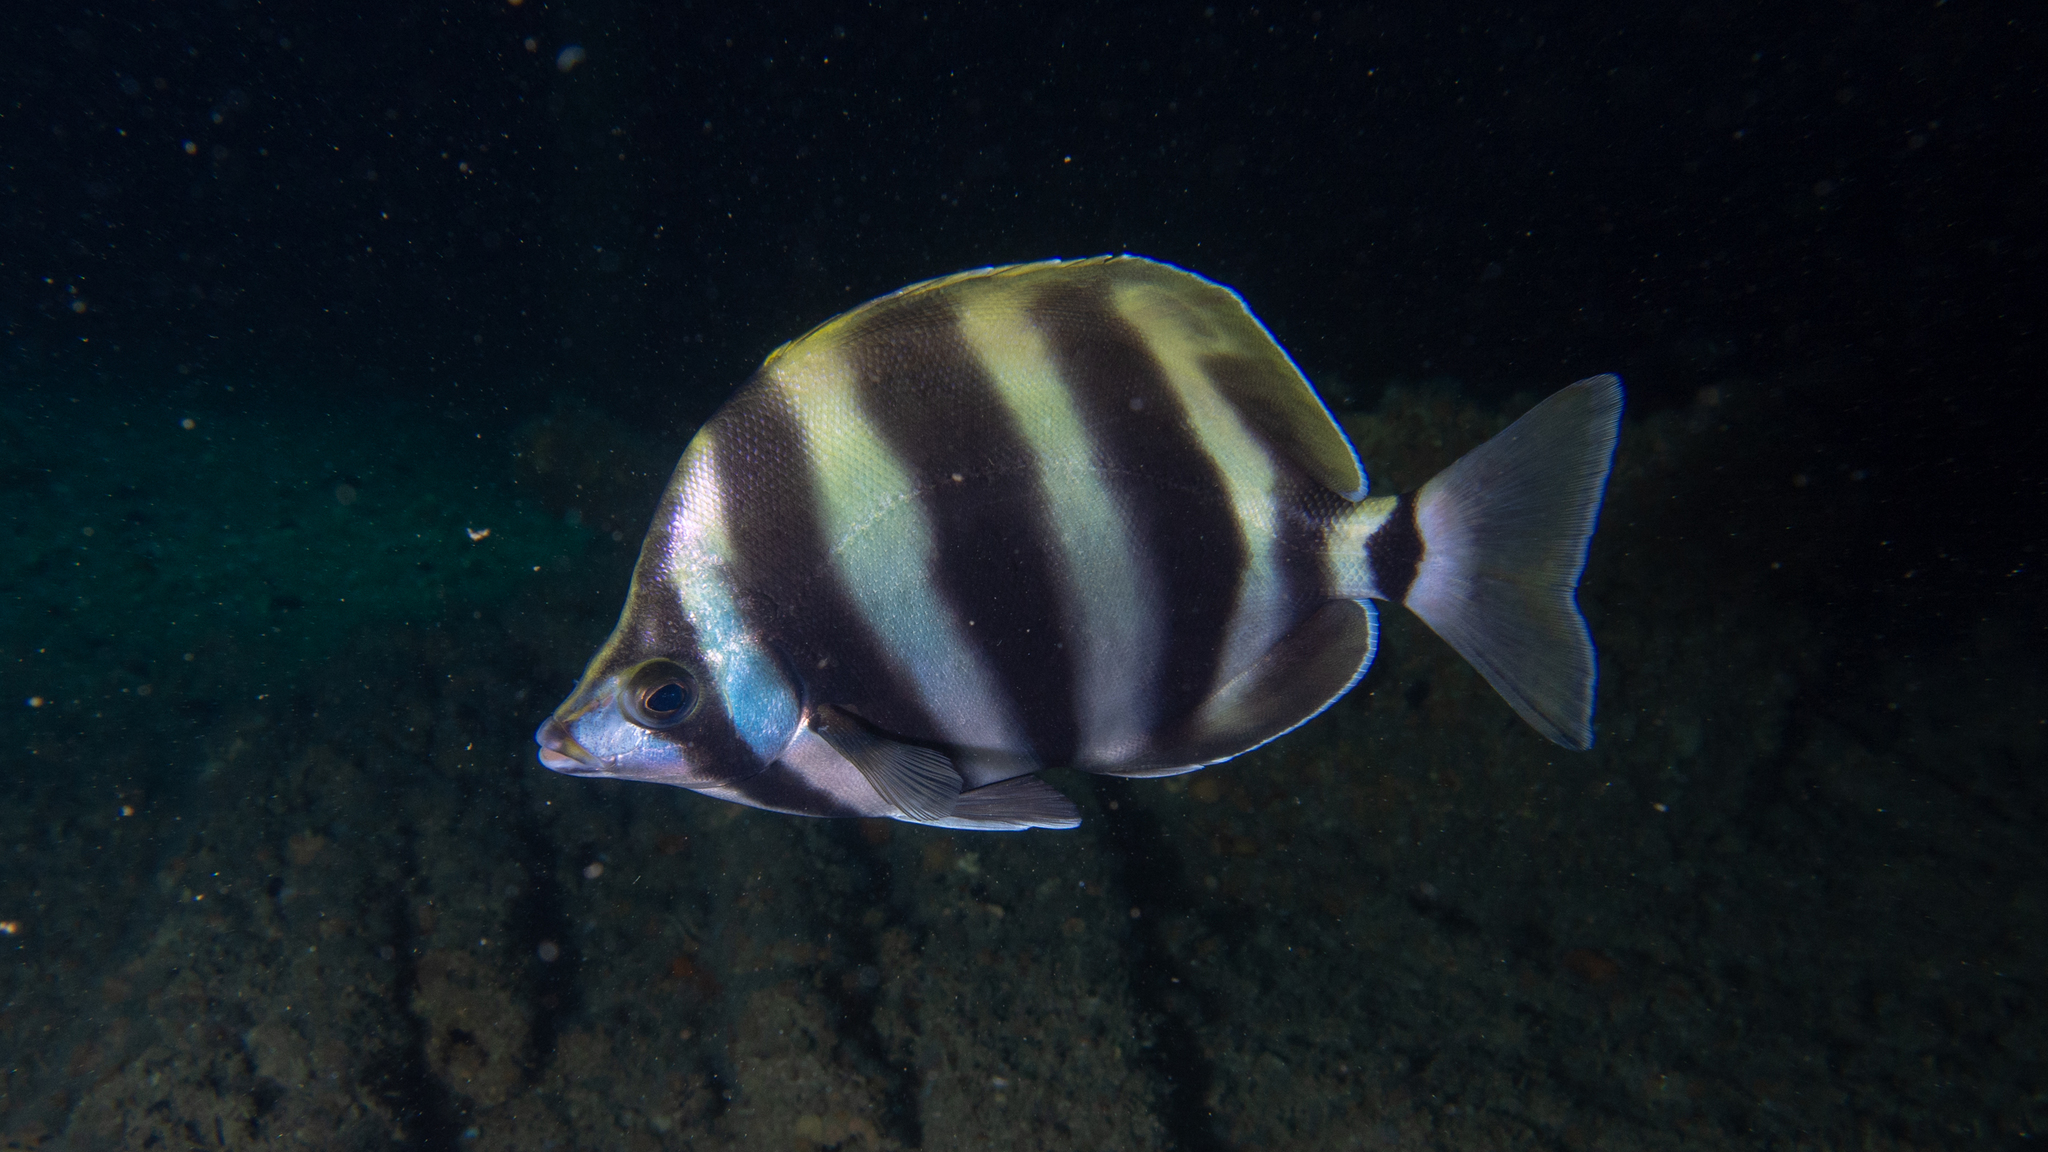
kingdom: Animalia
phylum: Chordata
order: Perciformes
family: Kyphosidae
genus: Tilodon
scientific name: Tilodon sexfasciatus
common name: Moonlighter
